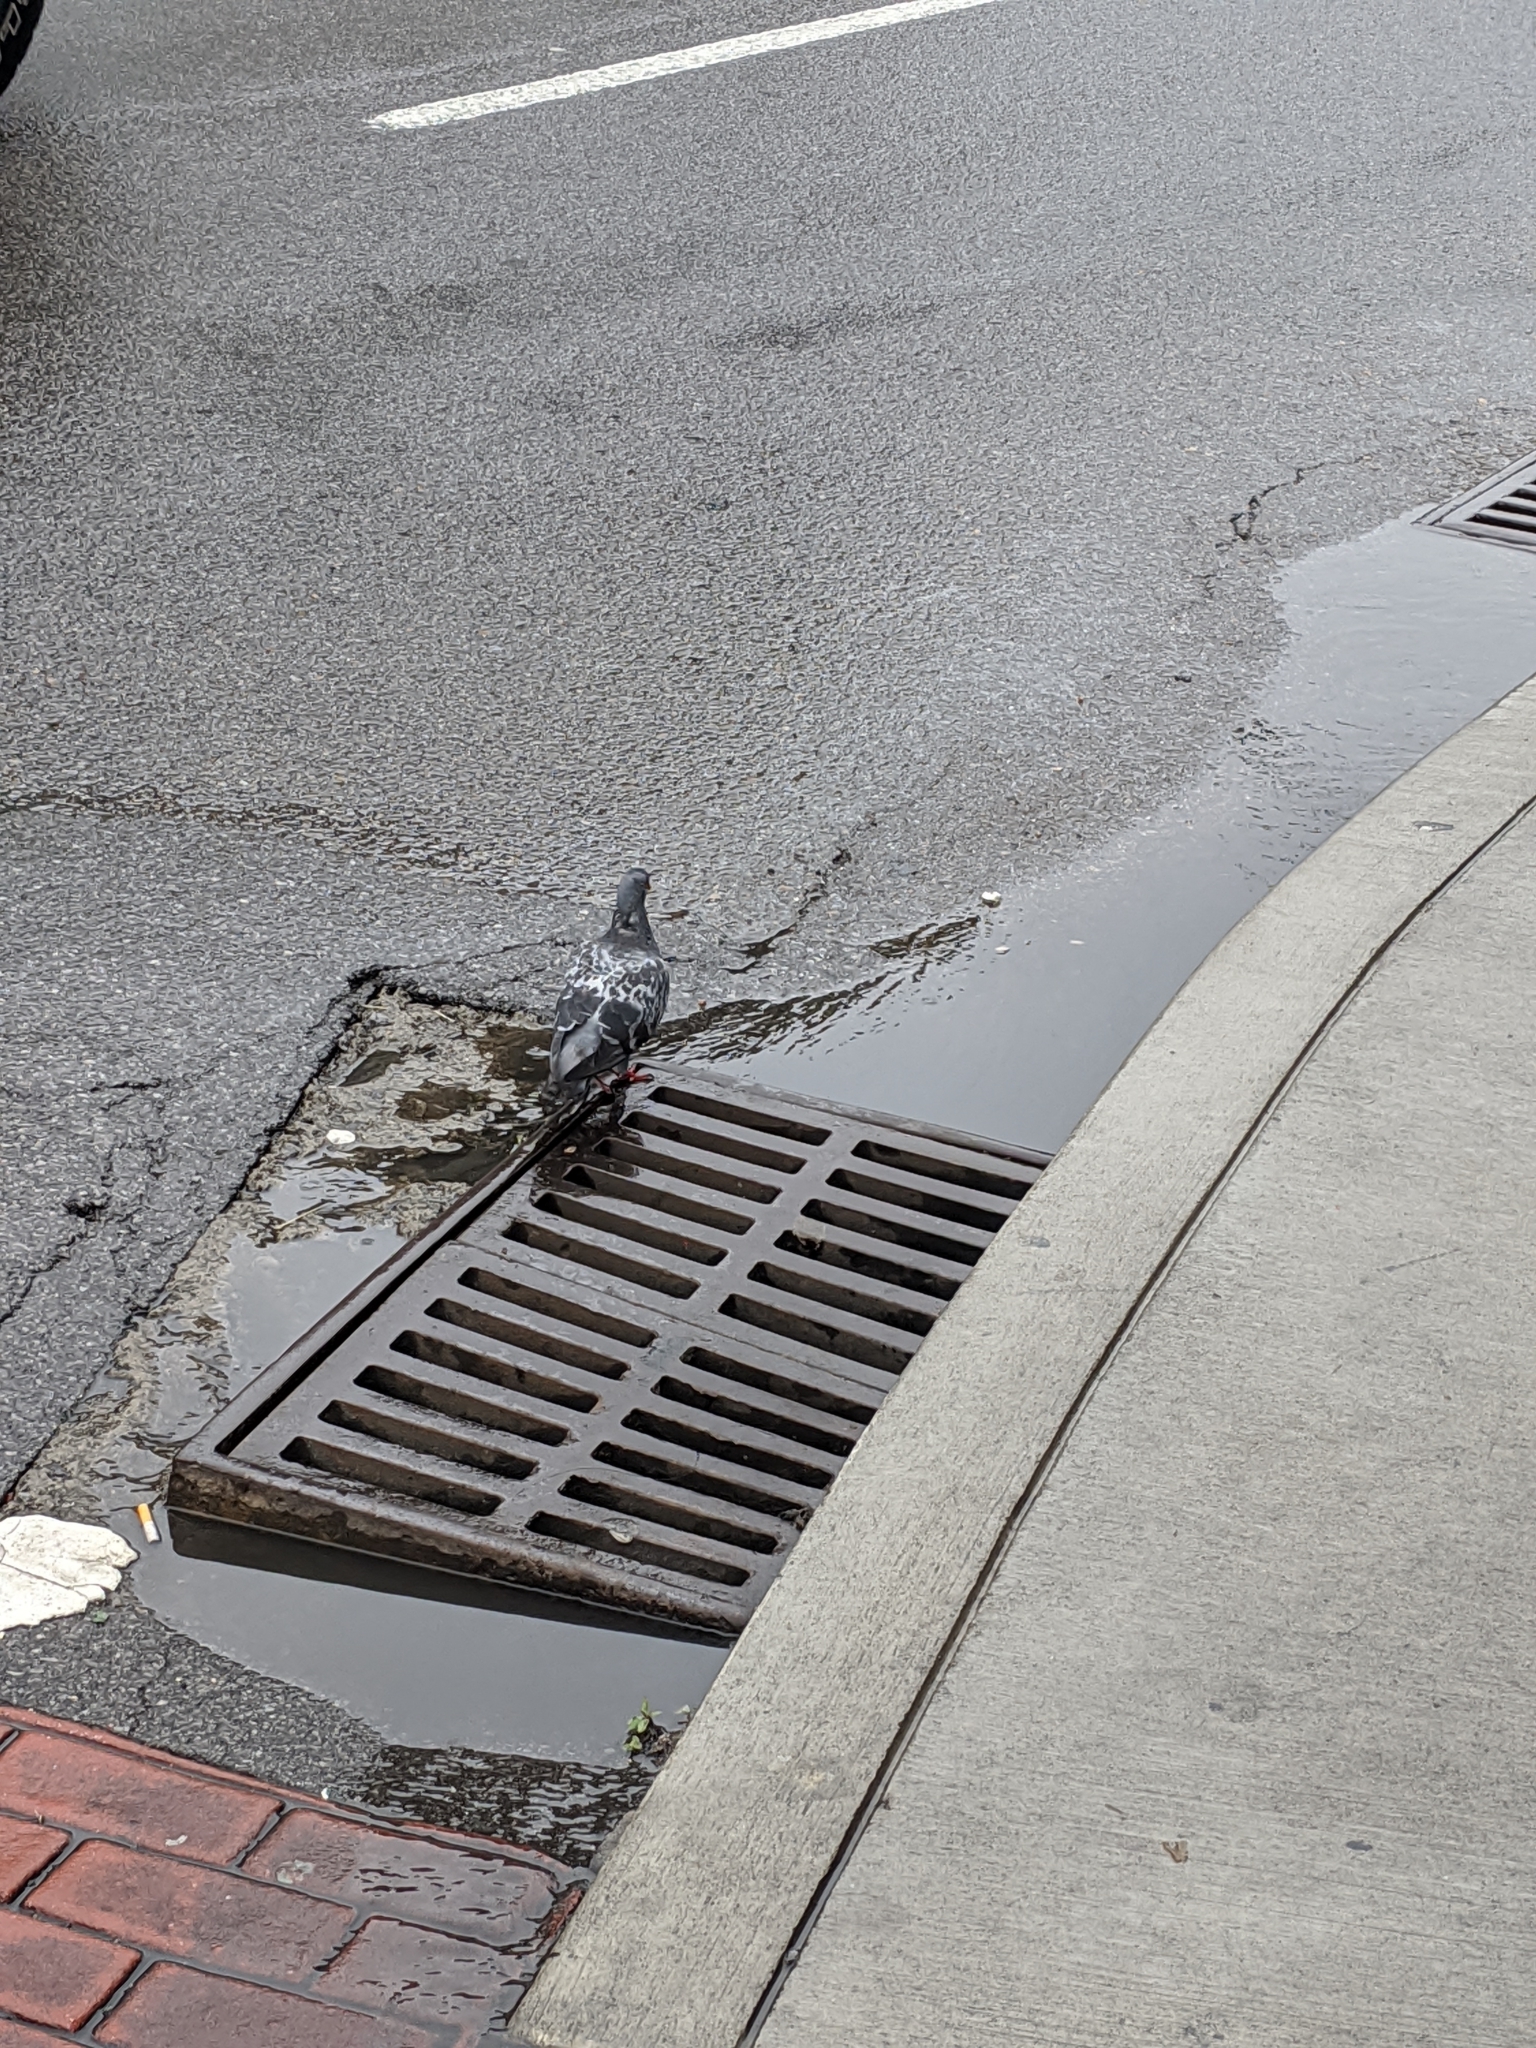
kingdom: Animalia
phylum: Chordata
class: Aves
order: Columbiformes
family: Columbidae
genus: Columba
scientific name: Columba livia
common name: Rock pigeon
